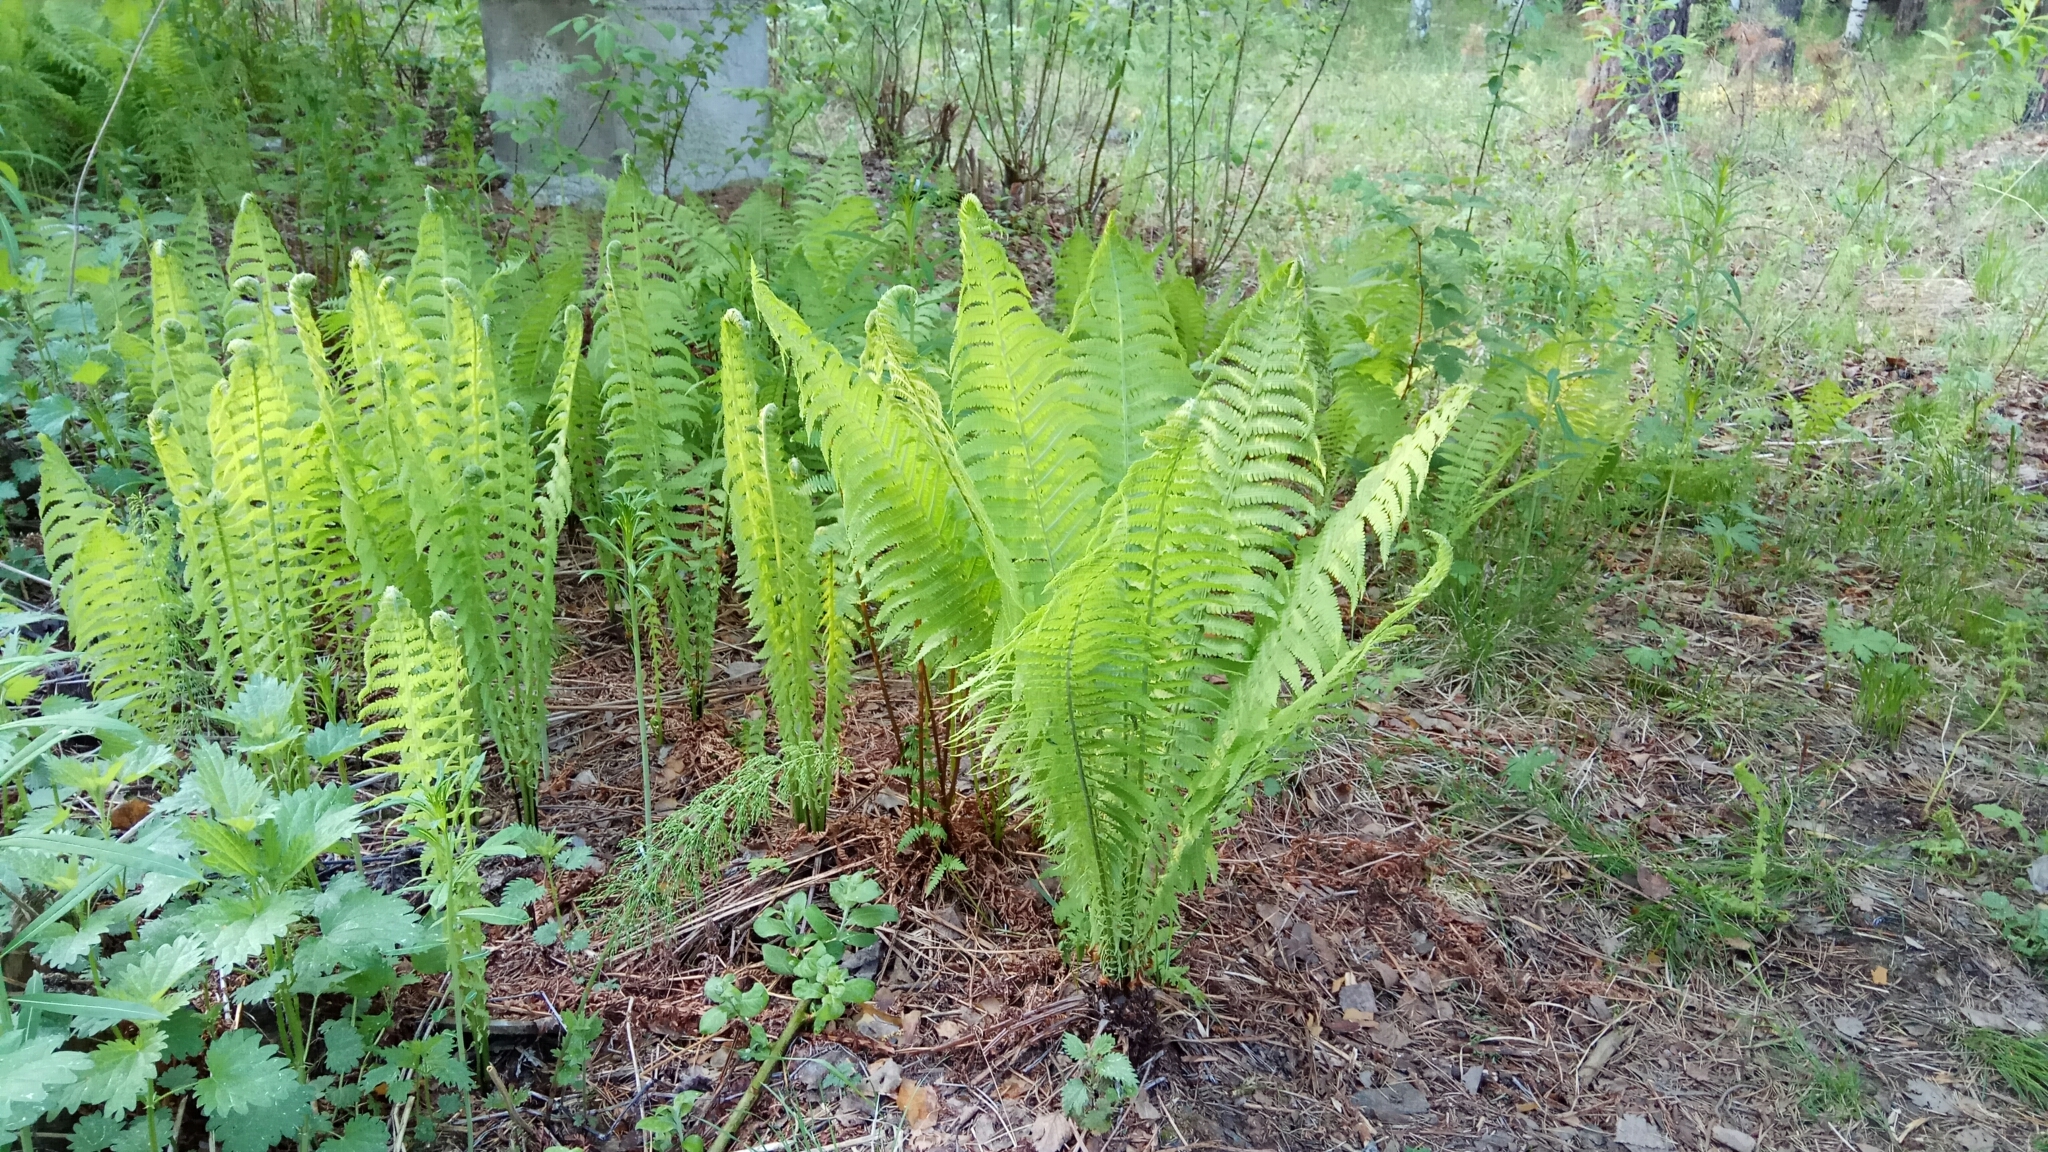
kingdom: Plantae
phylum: Tracheophyta
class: Polypodiopsida
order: Polypodiales
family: Onocleaceae
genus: Matteuccia
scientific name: Matteuccia struthiopteris
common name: Ostrich fern
